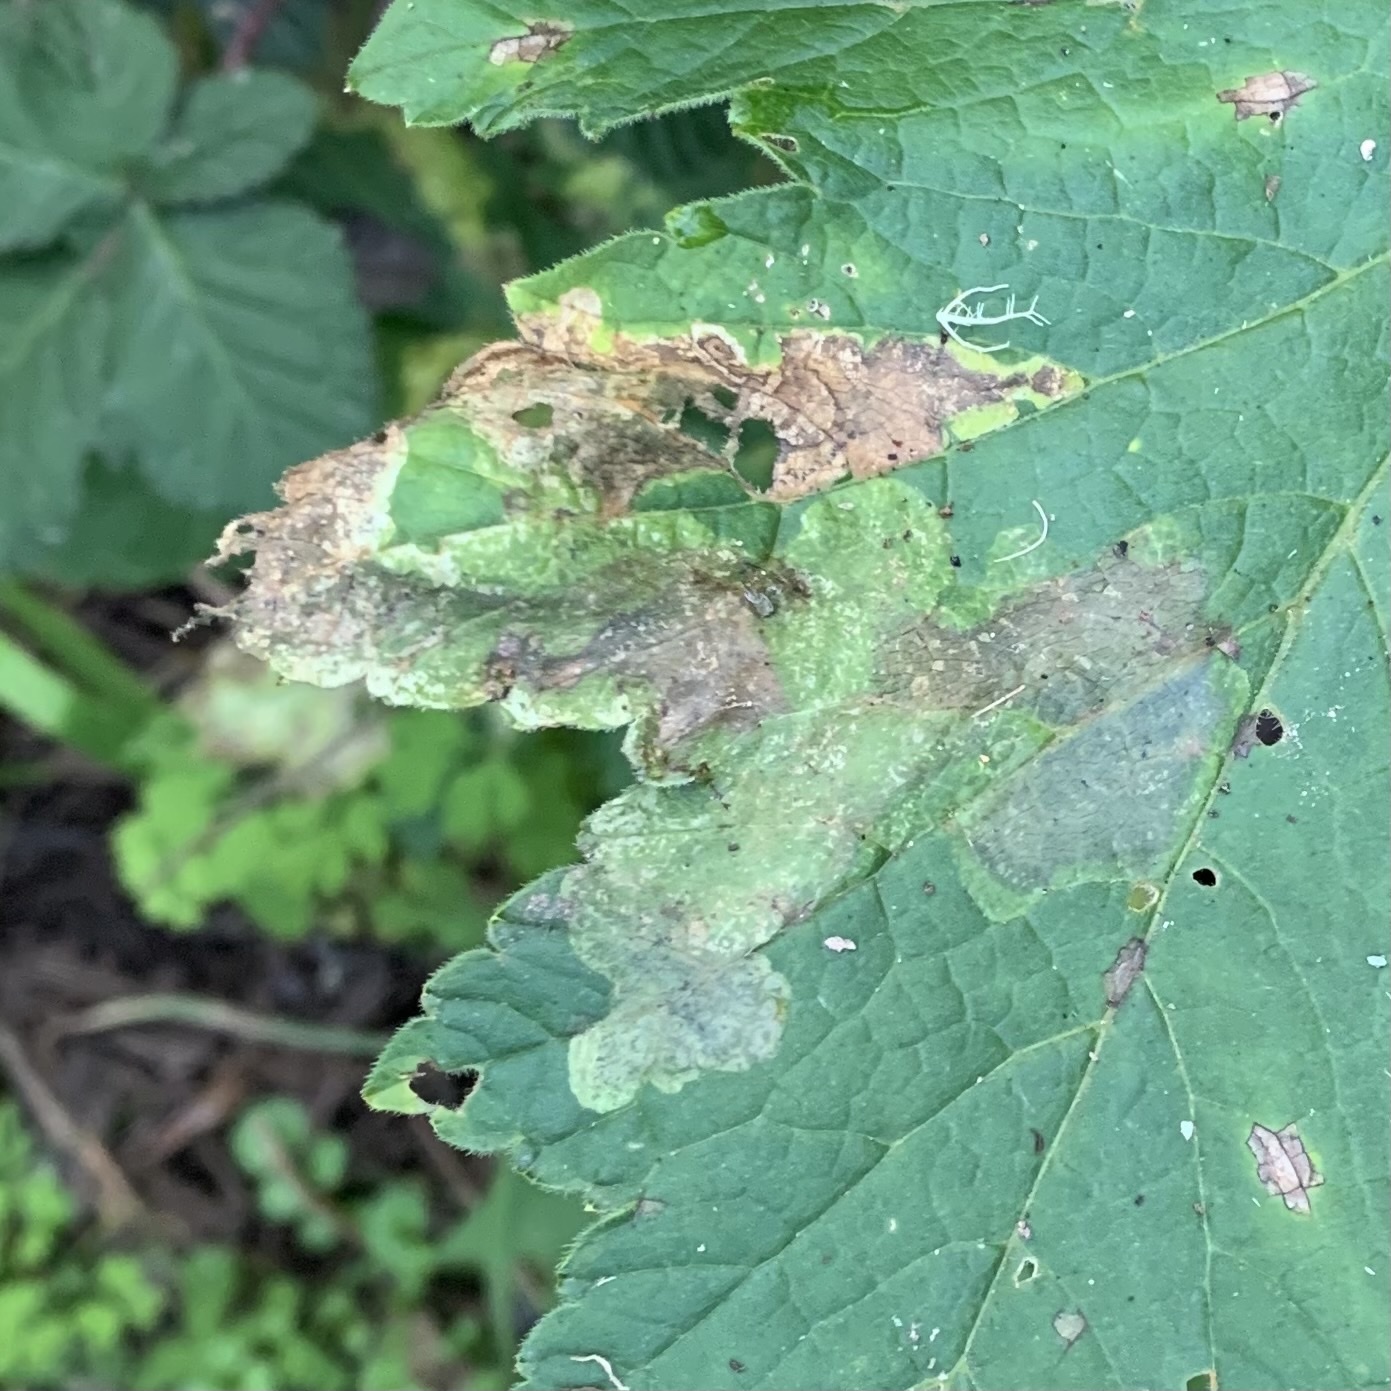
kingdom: Animalia
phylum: Arthropoda
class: Insecta
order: Diptera
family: Tephritidae
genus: Euleia
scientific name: Euleia fratria
